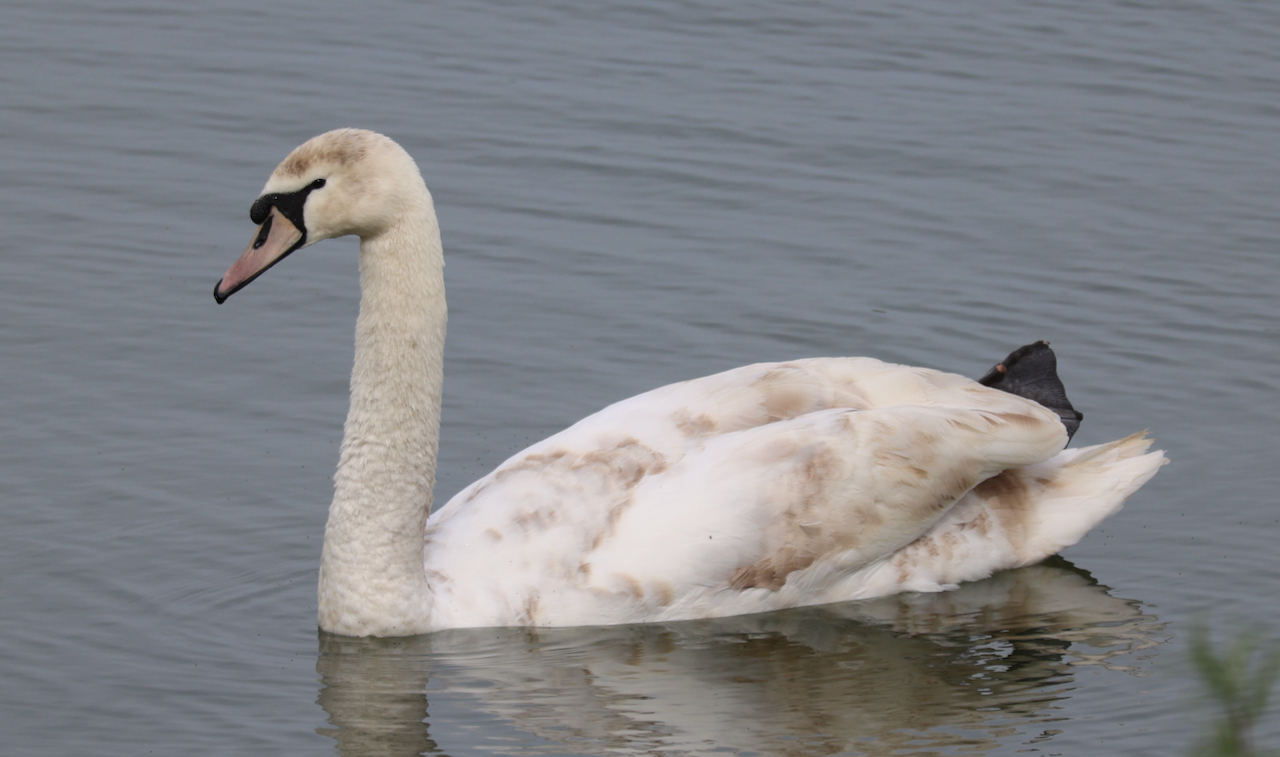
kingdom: Animalia
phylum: Chordata
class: Aves
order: Anseriformes
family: Anatidae
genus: Cygnus
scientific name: Cygnus olor
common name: Mute swan
